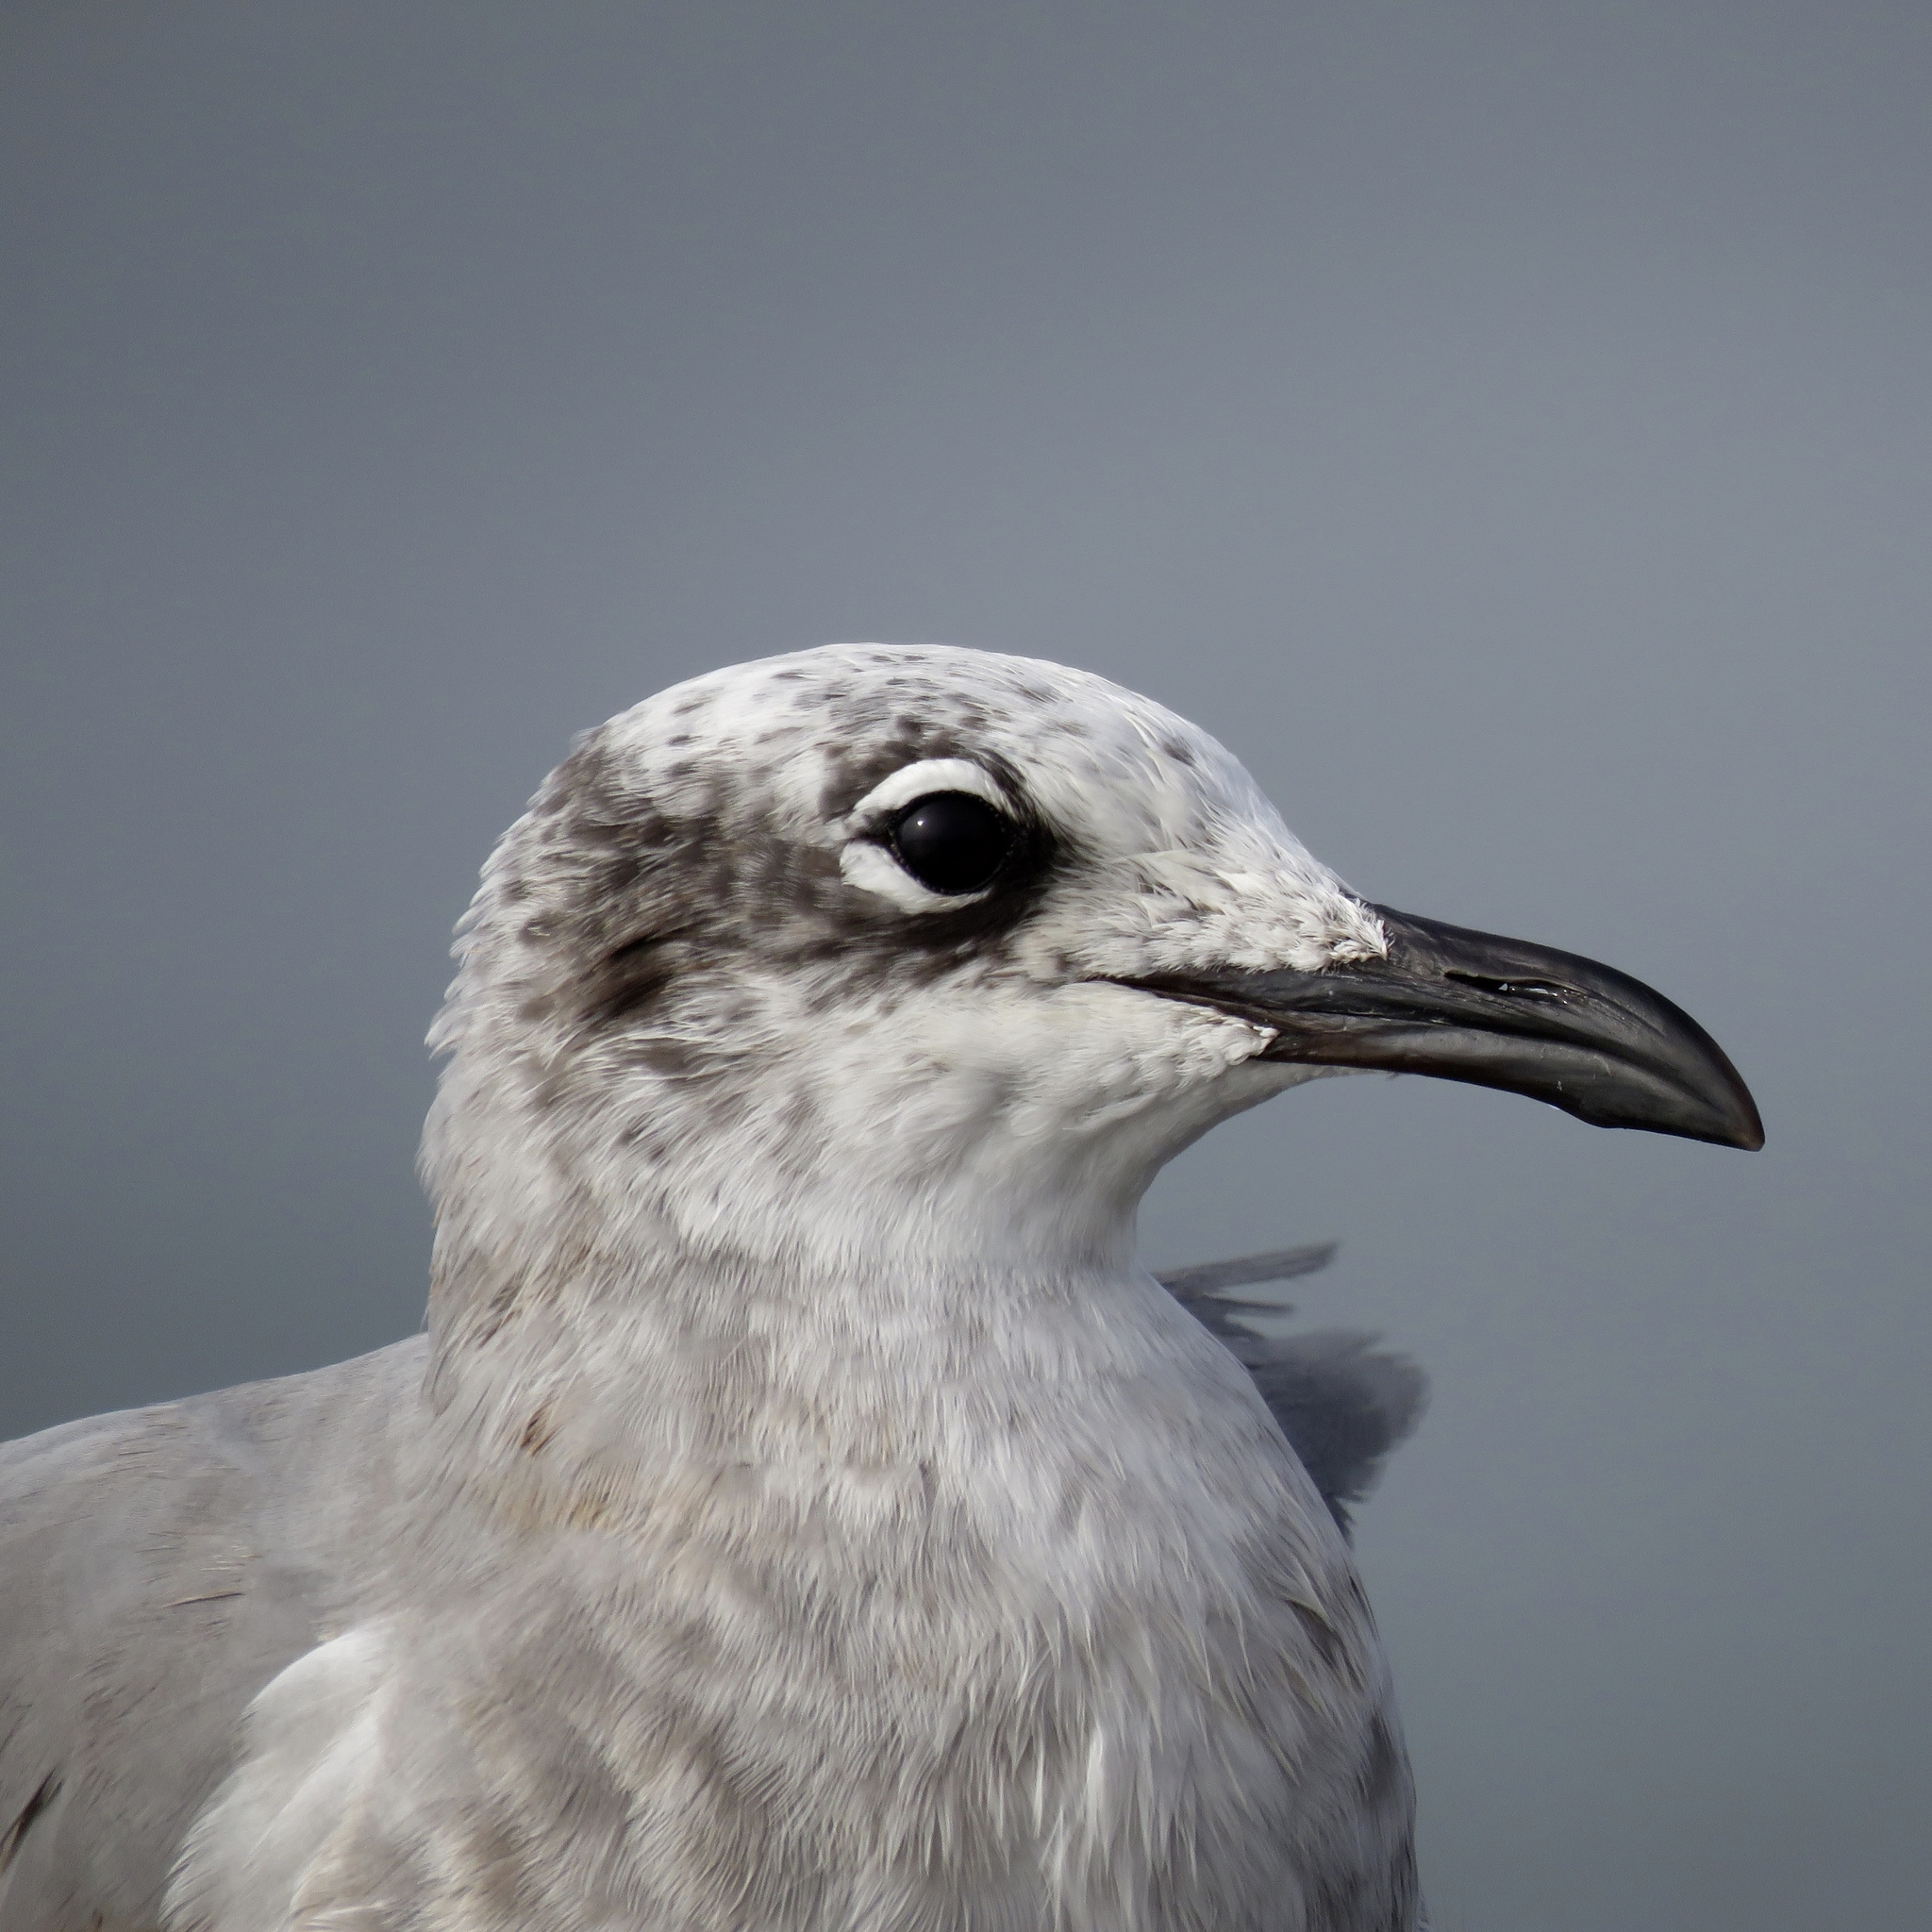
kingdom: Animalia
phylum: Chordata
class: Aves
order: Charadriiformes
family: Laridae
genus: Leucophaeus
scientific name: Leucophaeus atricilla
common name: Laughing gull
